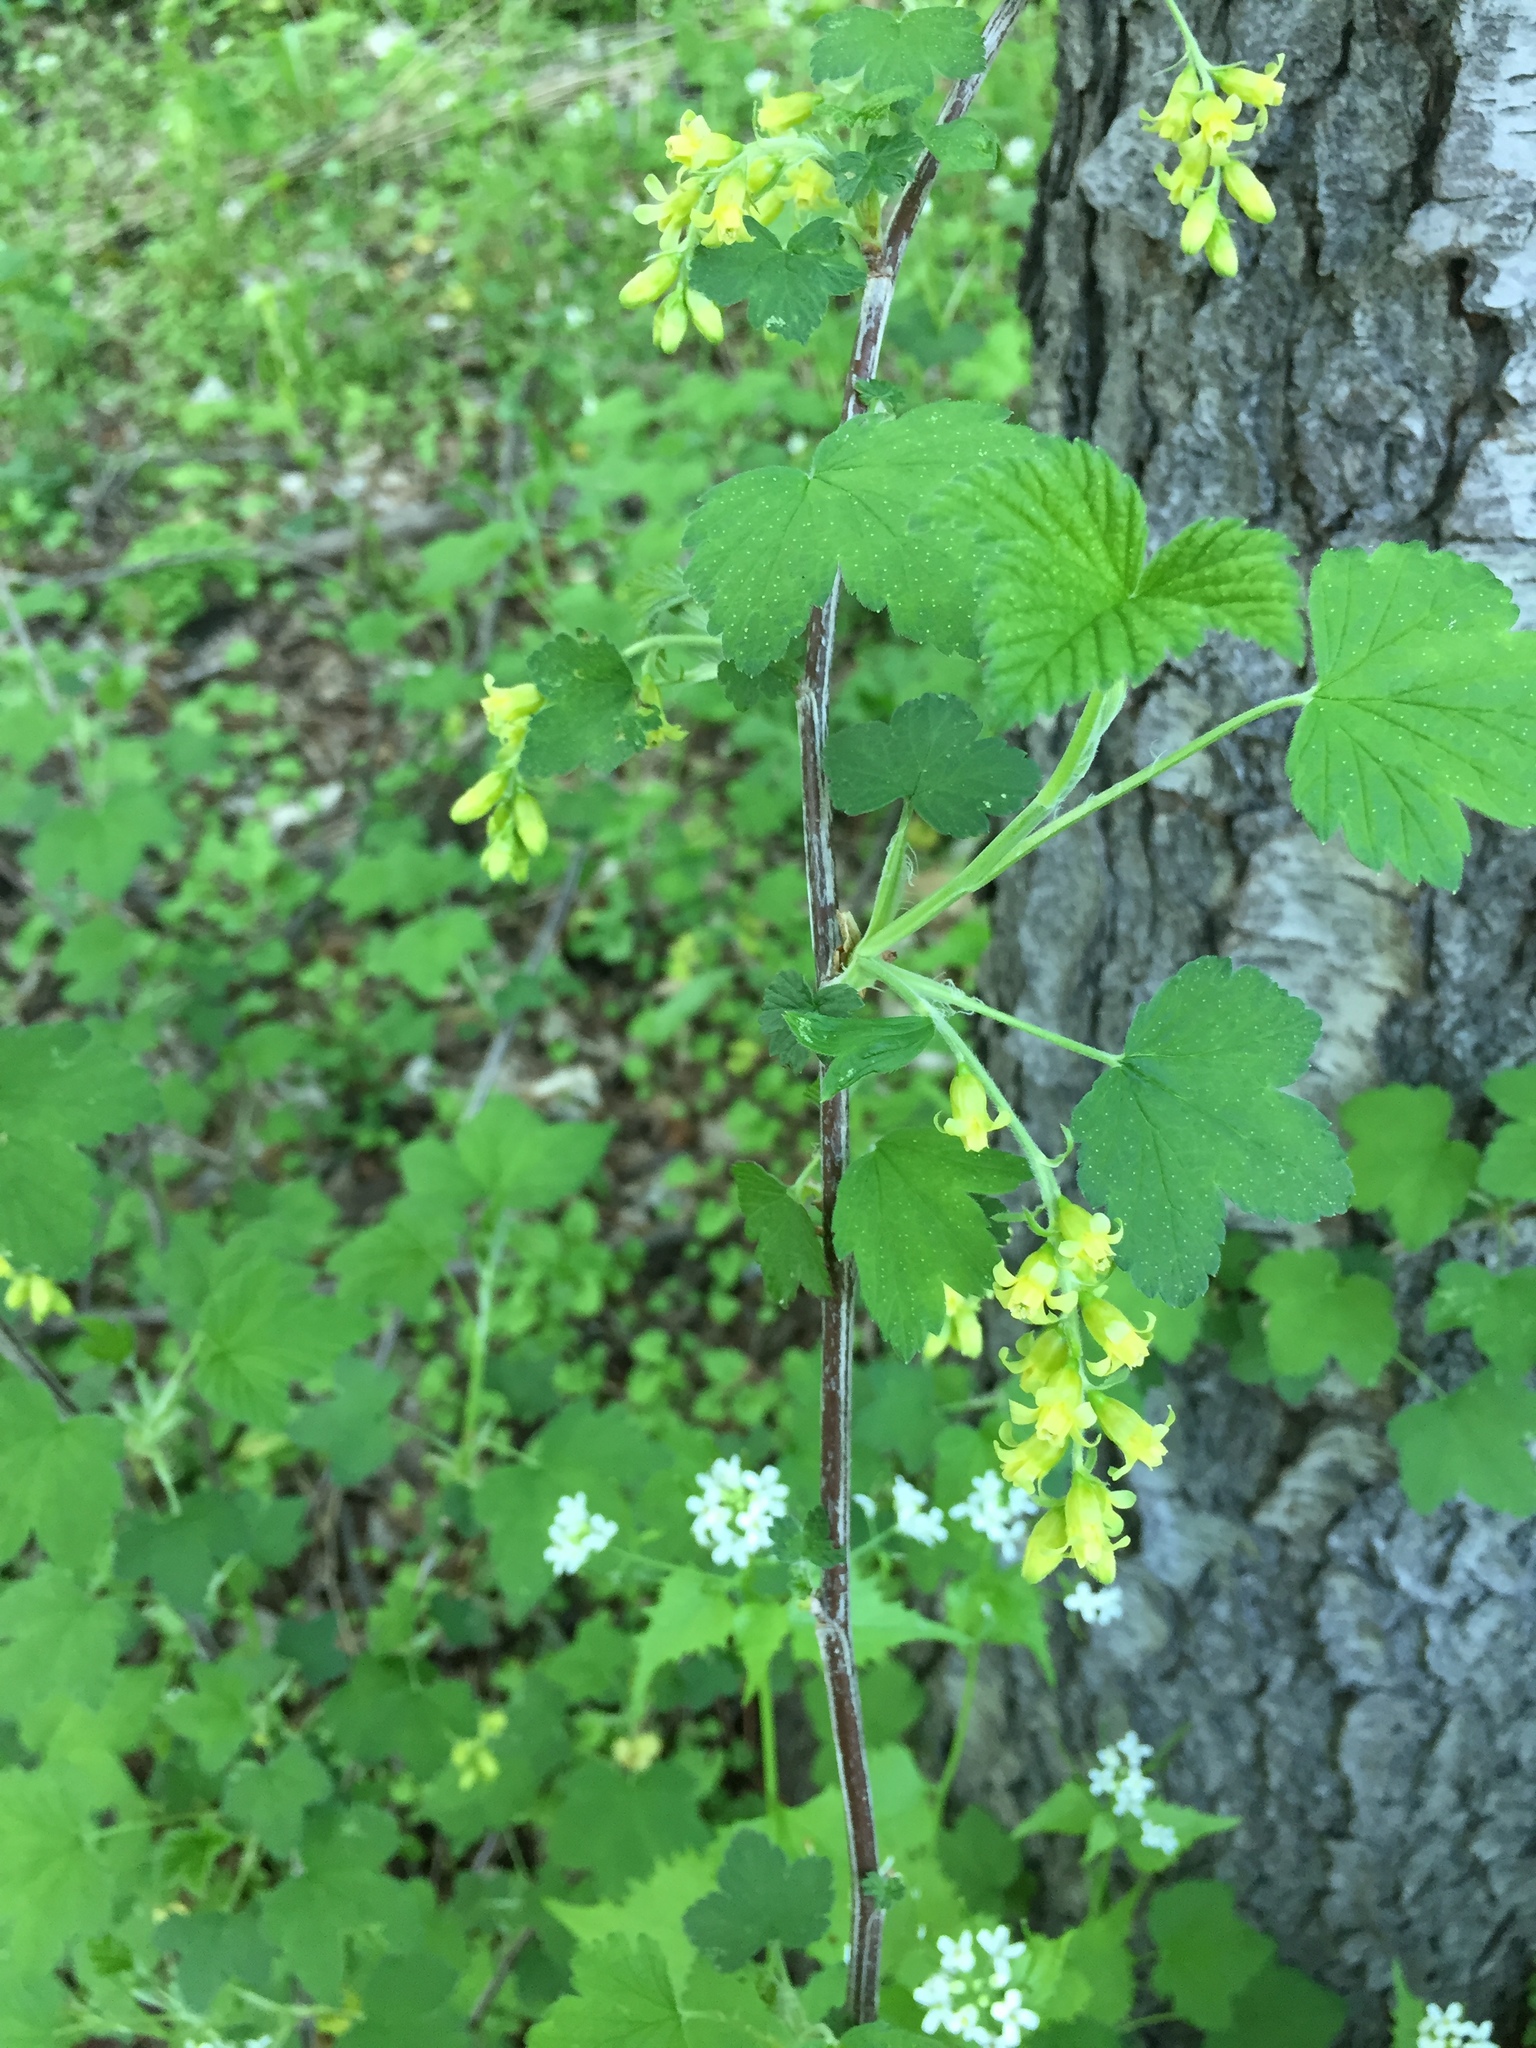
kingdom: Plantae
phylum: Tracheophyta
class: Magnoliopsida
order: Saxifragales
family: Grossulariaceae
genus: Ribes
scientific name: Ribes americanum
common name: American black currant
